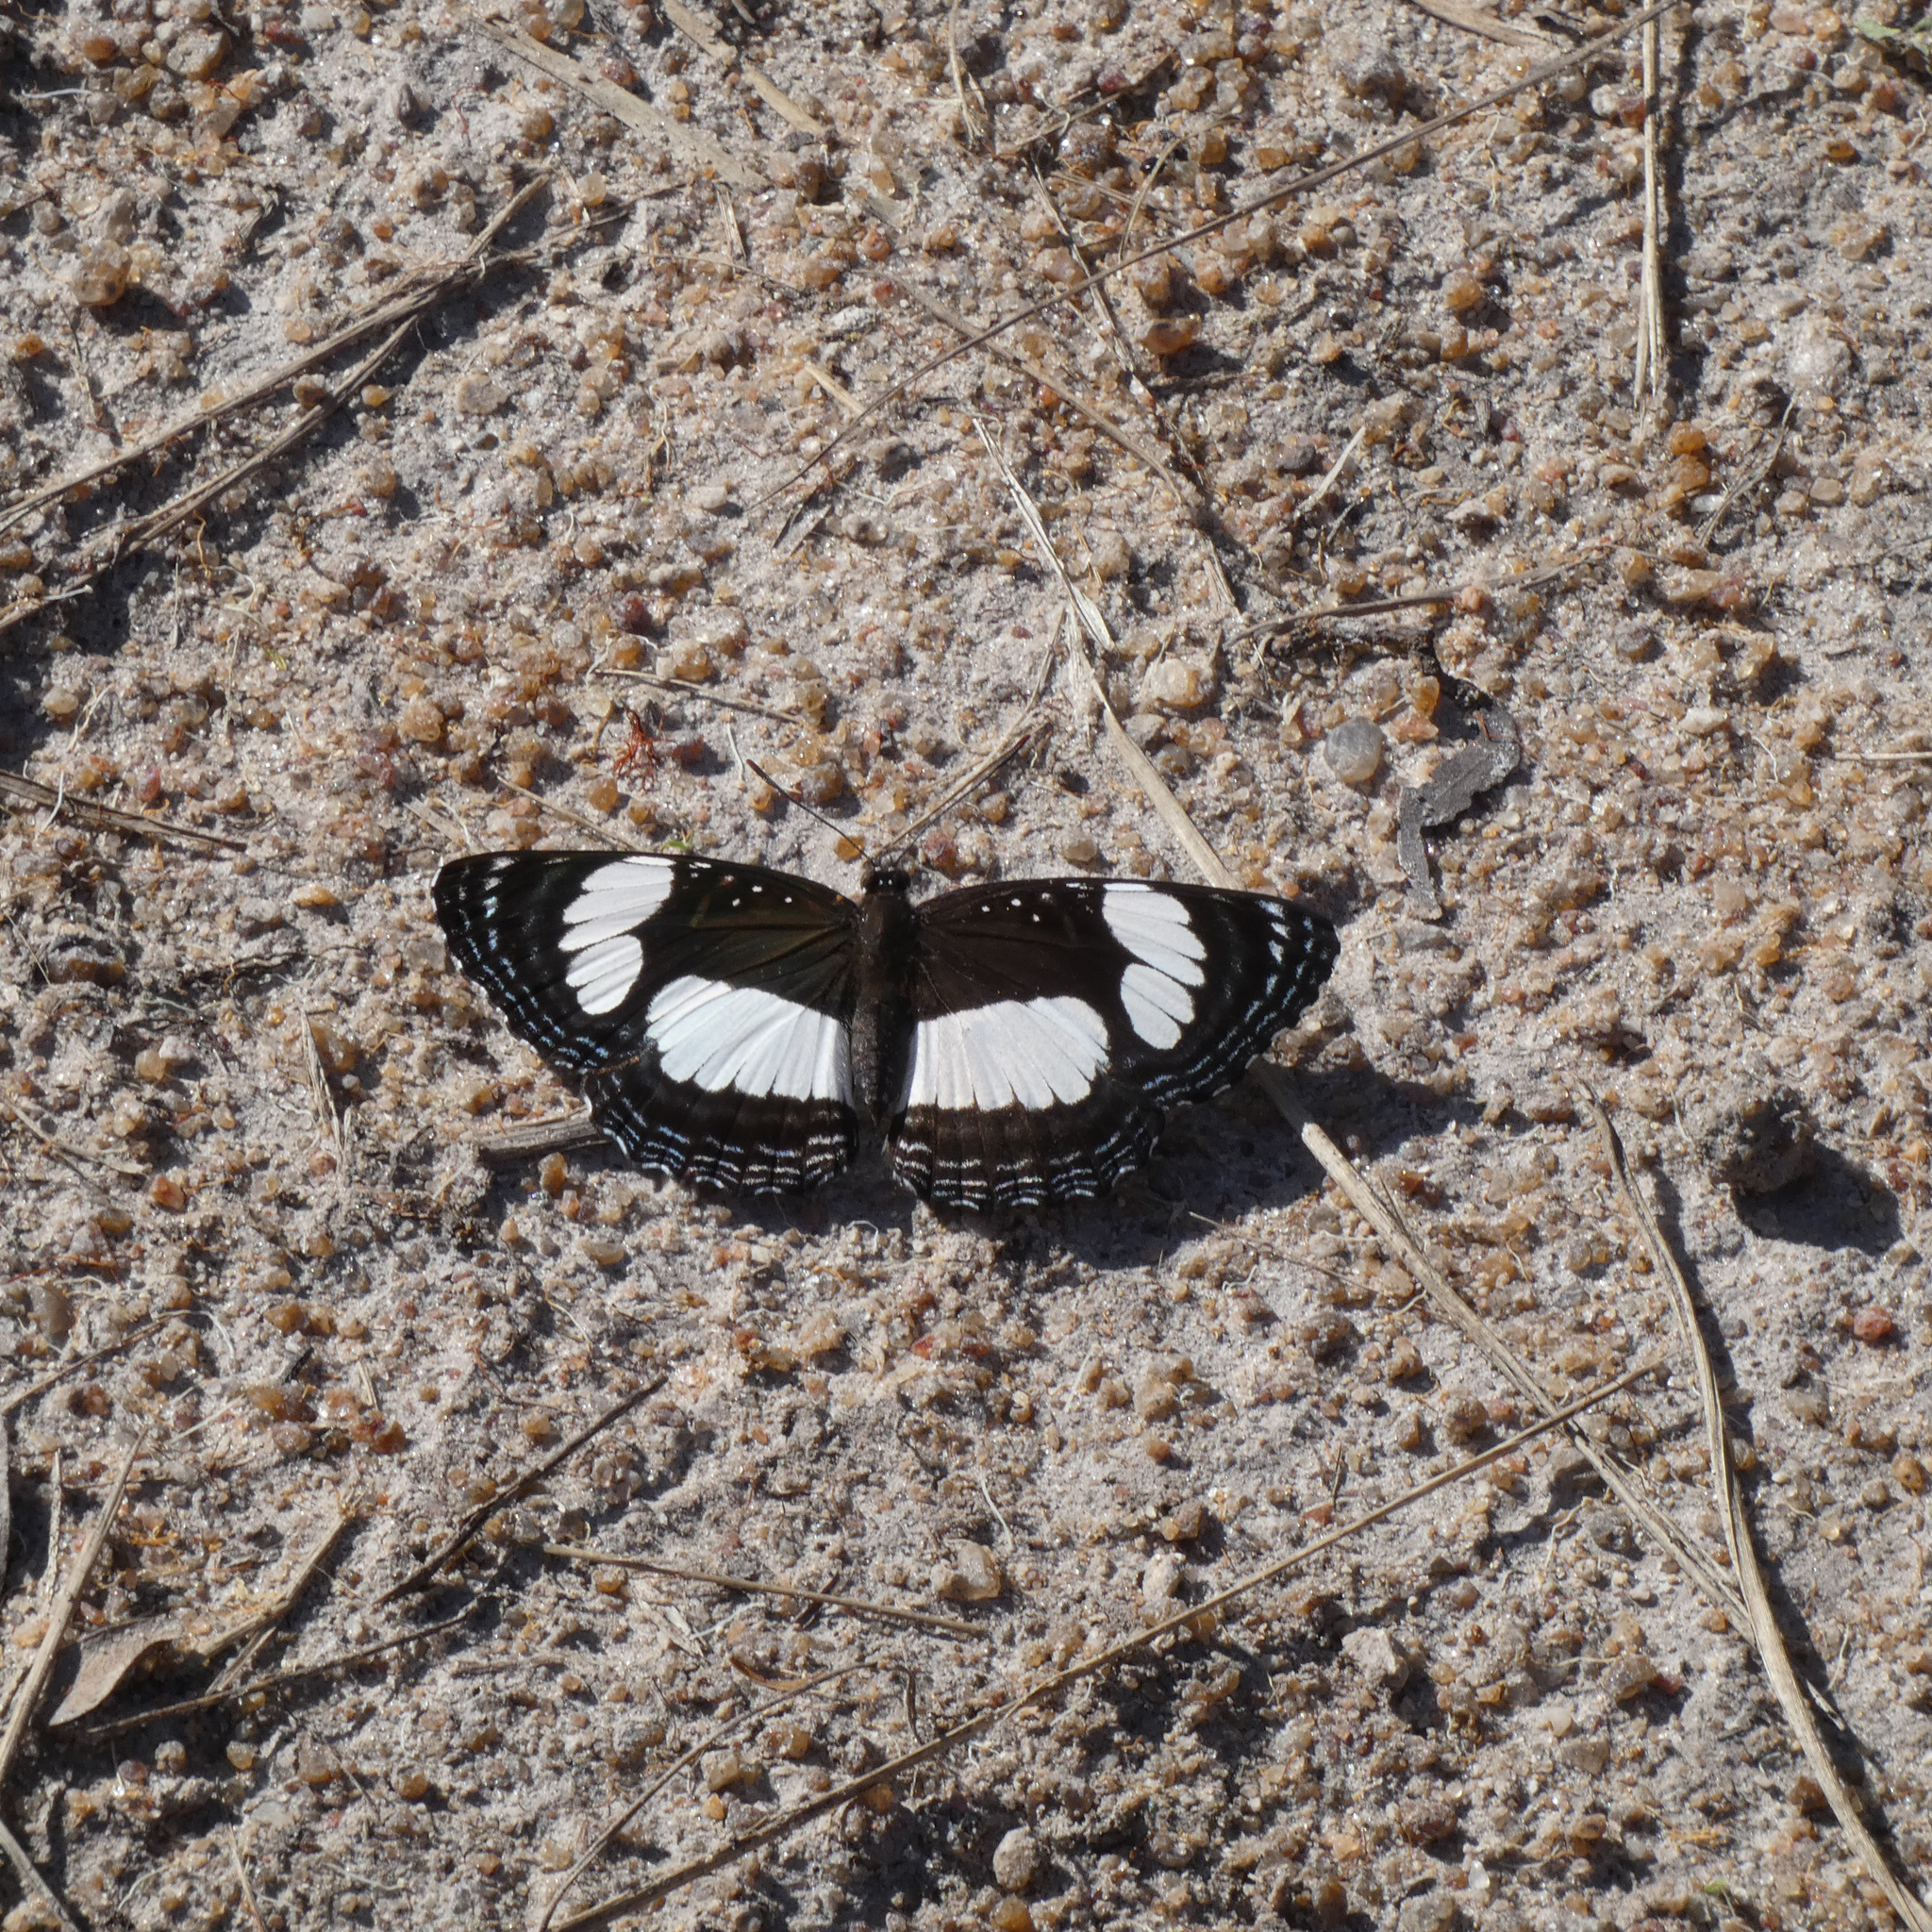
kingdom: Animalia
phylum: Arthropoda
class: Insecta
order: Lepidoptera
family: Nymphalidae
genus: Neptis
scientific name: Neptis laeta
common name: Common barred sailor
